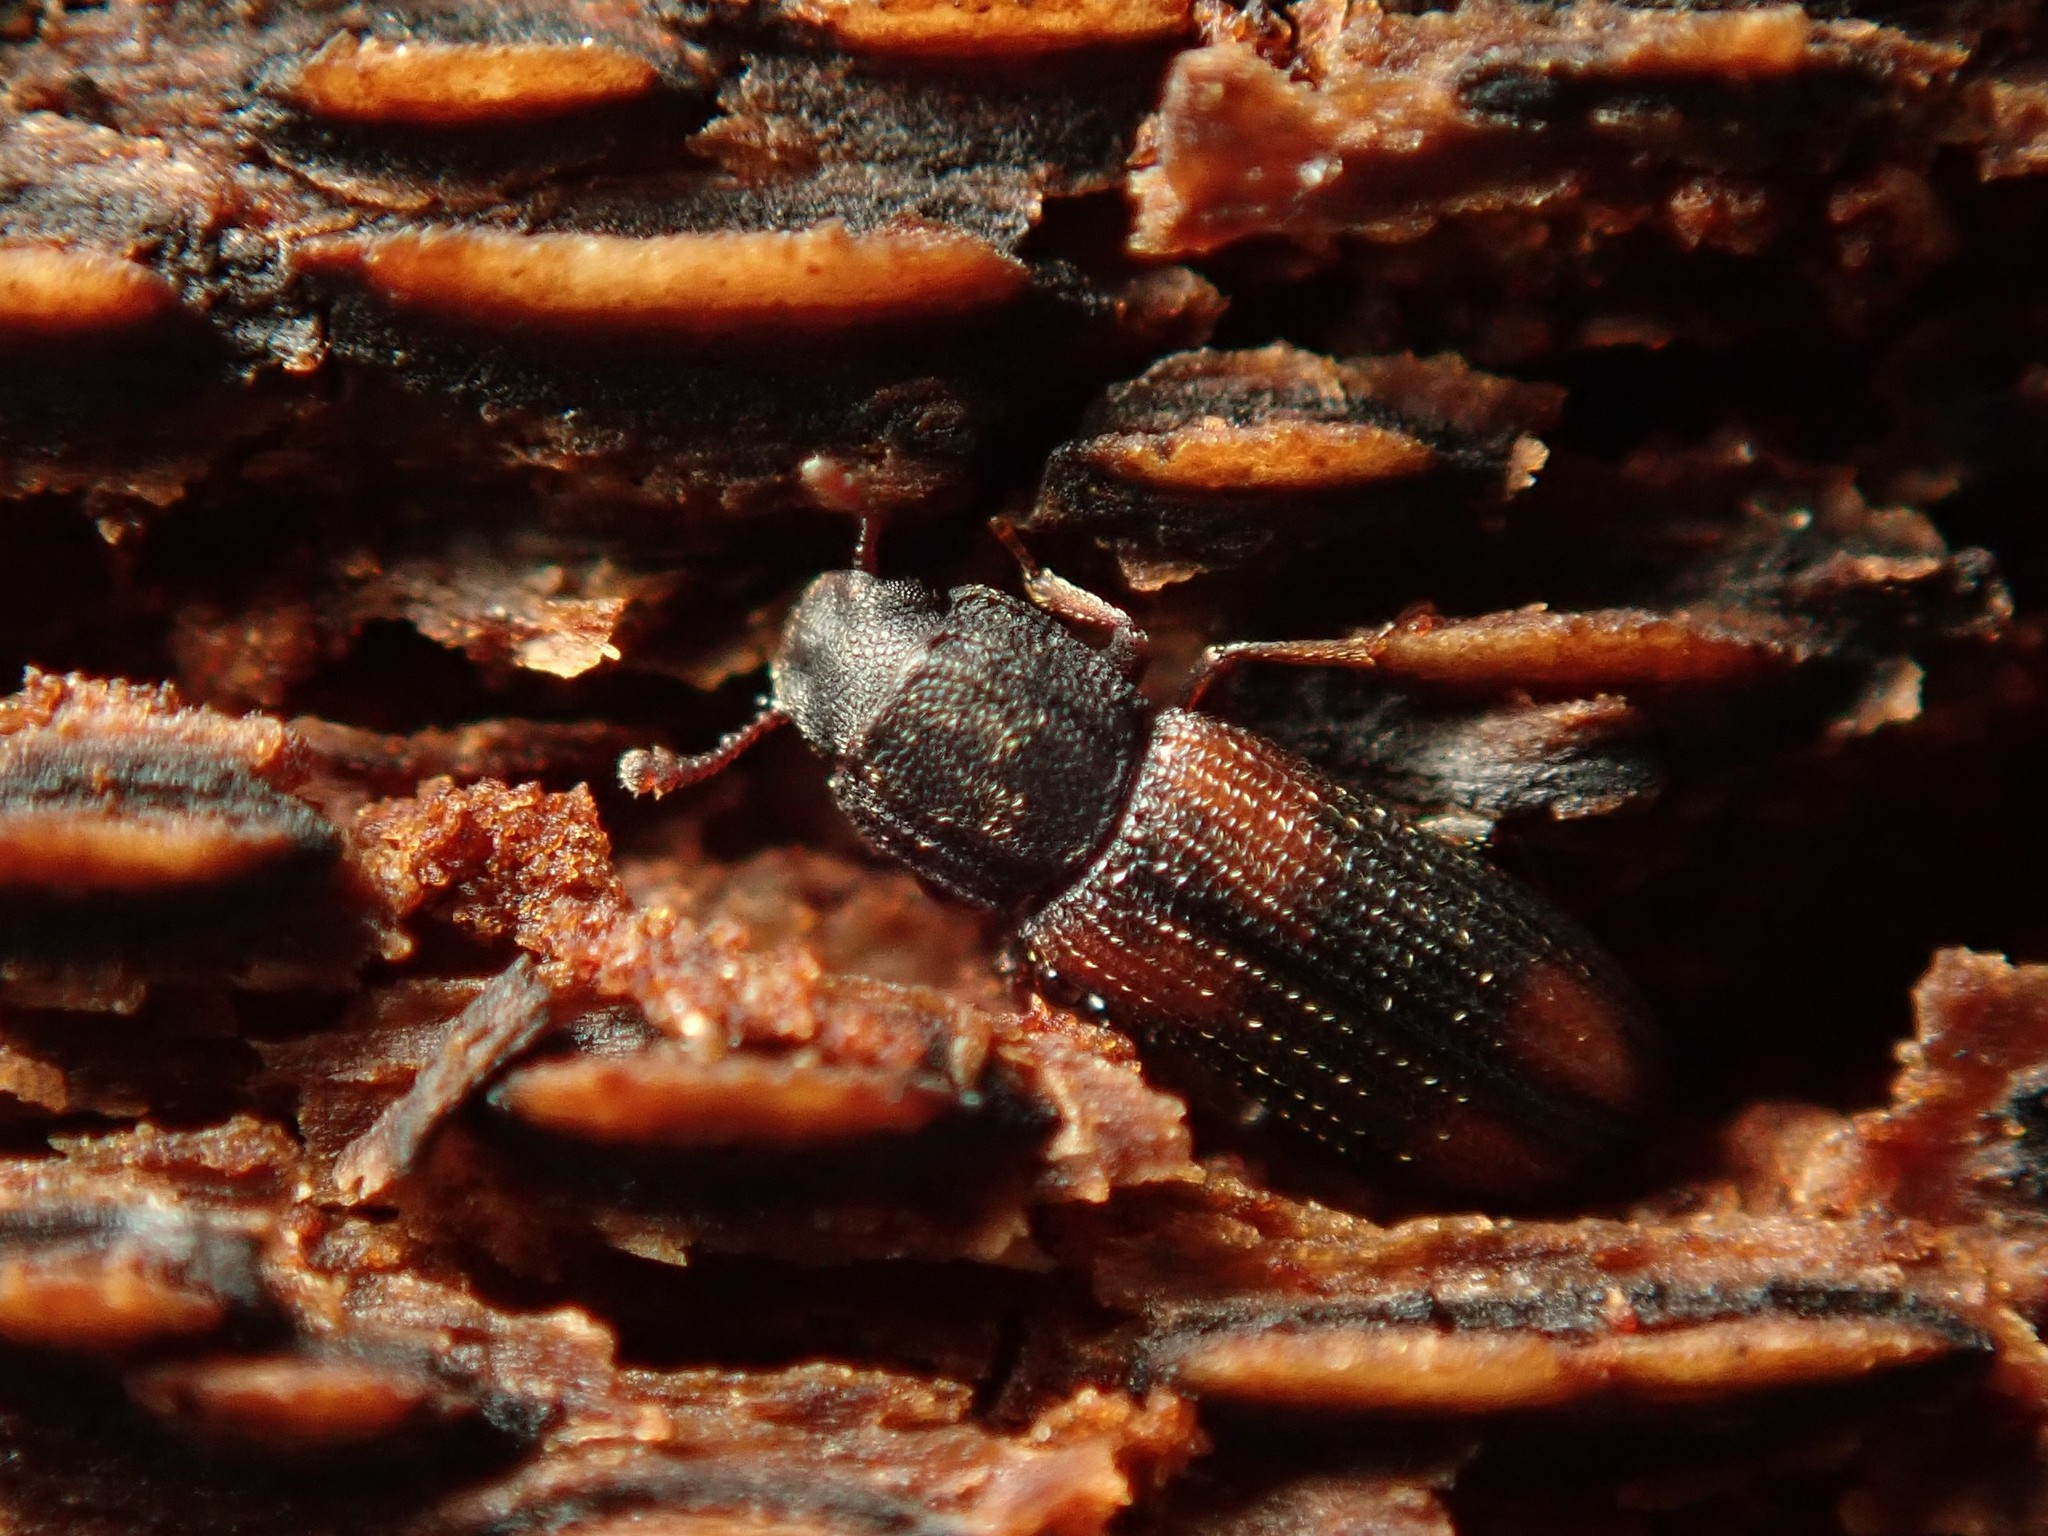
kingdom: Animalia
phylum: Arthropoda
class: Insecta
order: Coleoptera
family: Zopheridae
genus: Bitoma
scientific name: Bitoma crenata
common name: Bark beetle
